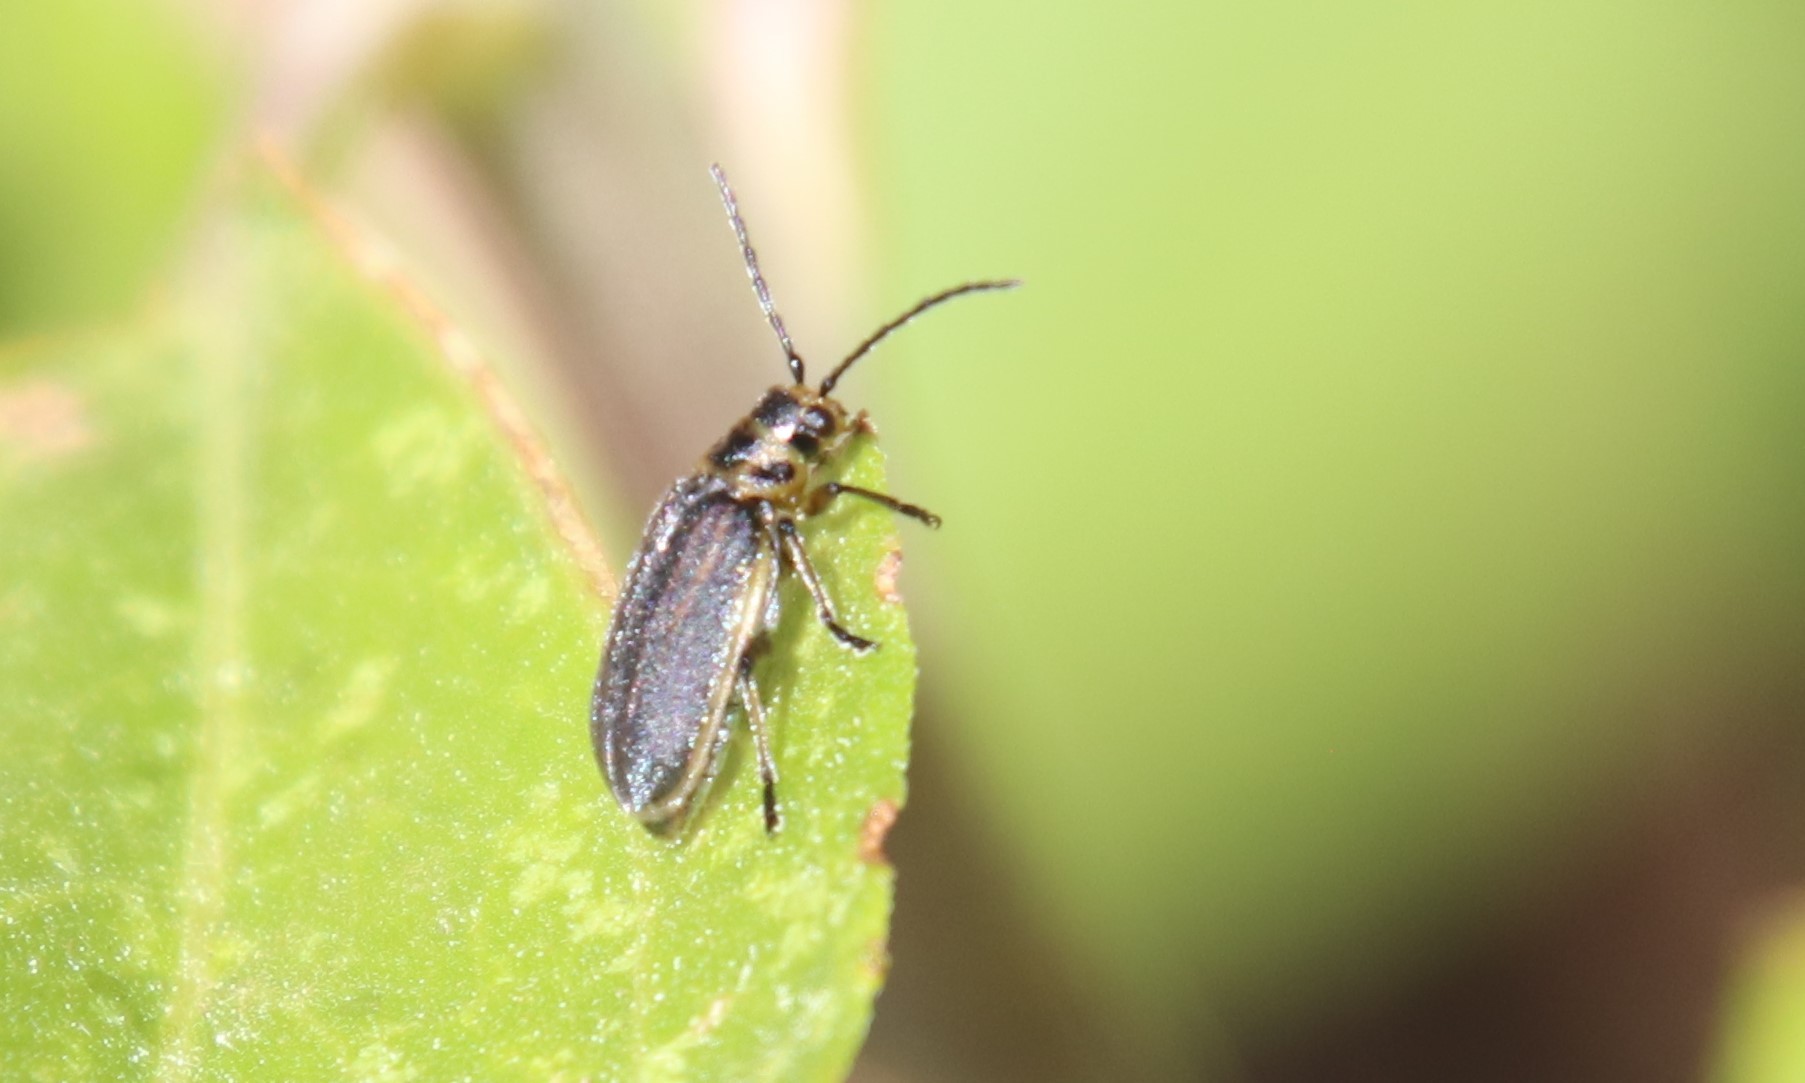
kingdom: Animalia
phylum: Arthropoda
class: Insecta
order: Coleoptera
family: Chrysomelidae
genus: Trirhabda
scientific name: Trirhabda geminata
